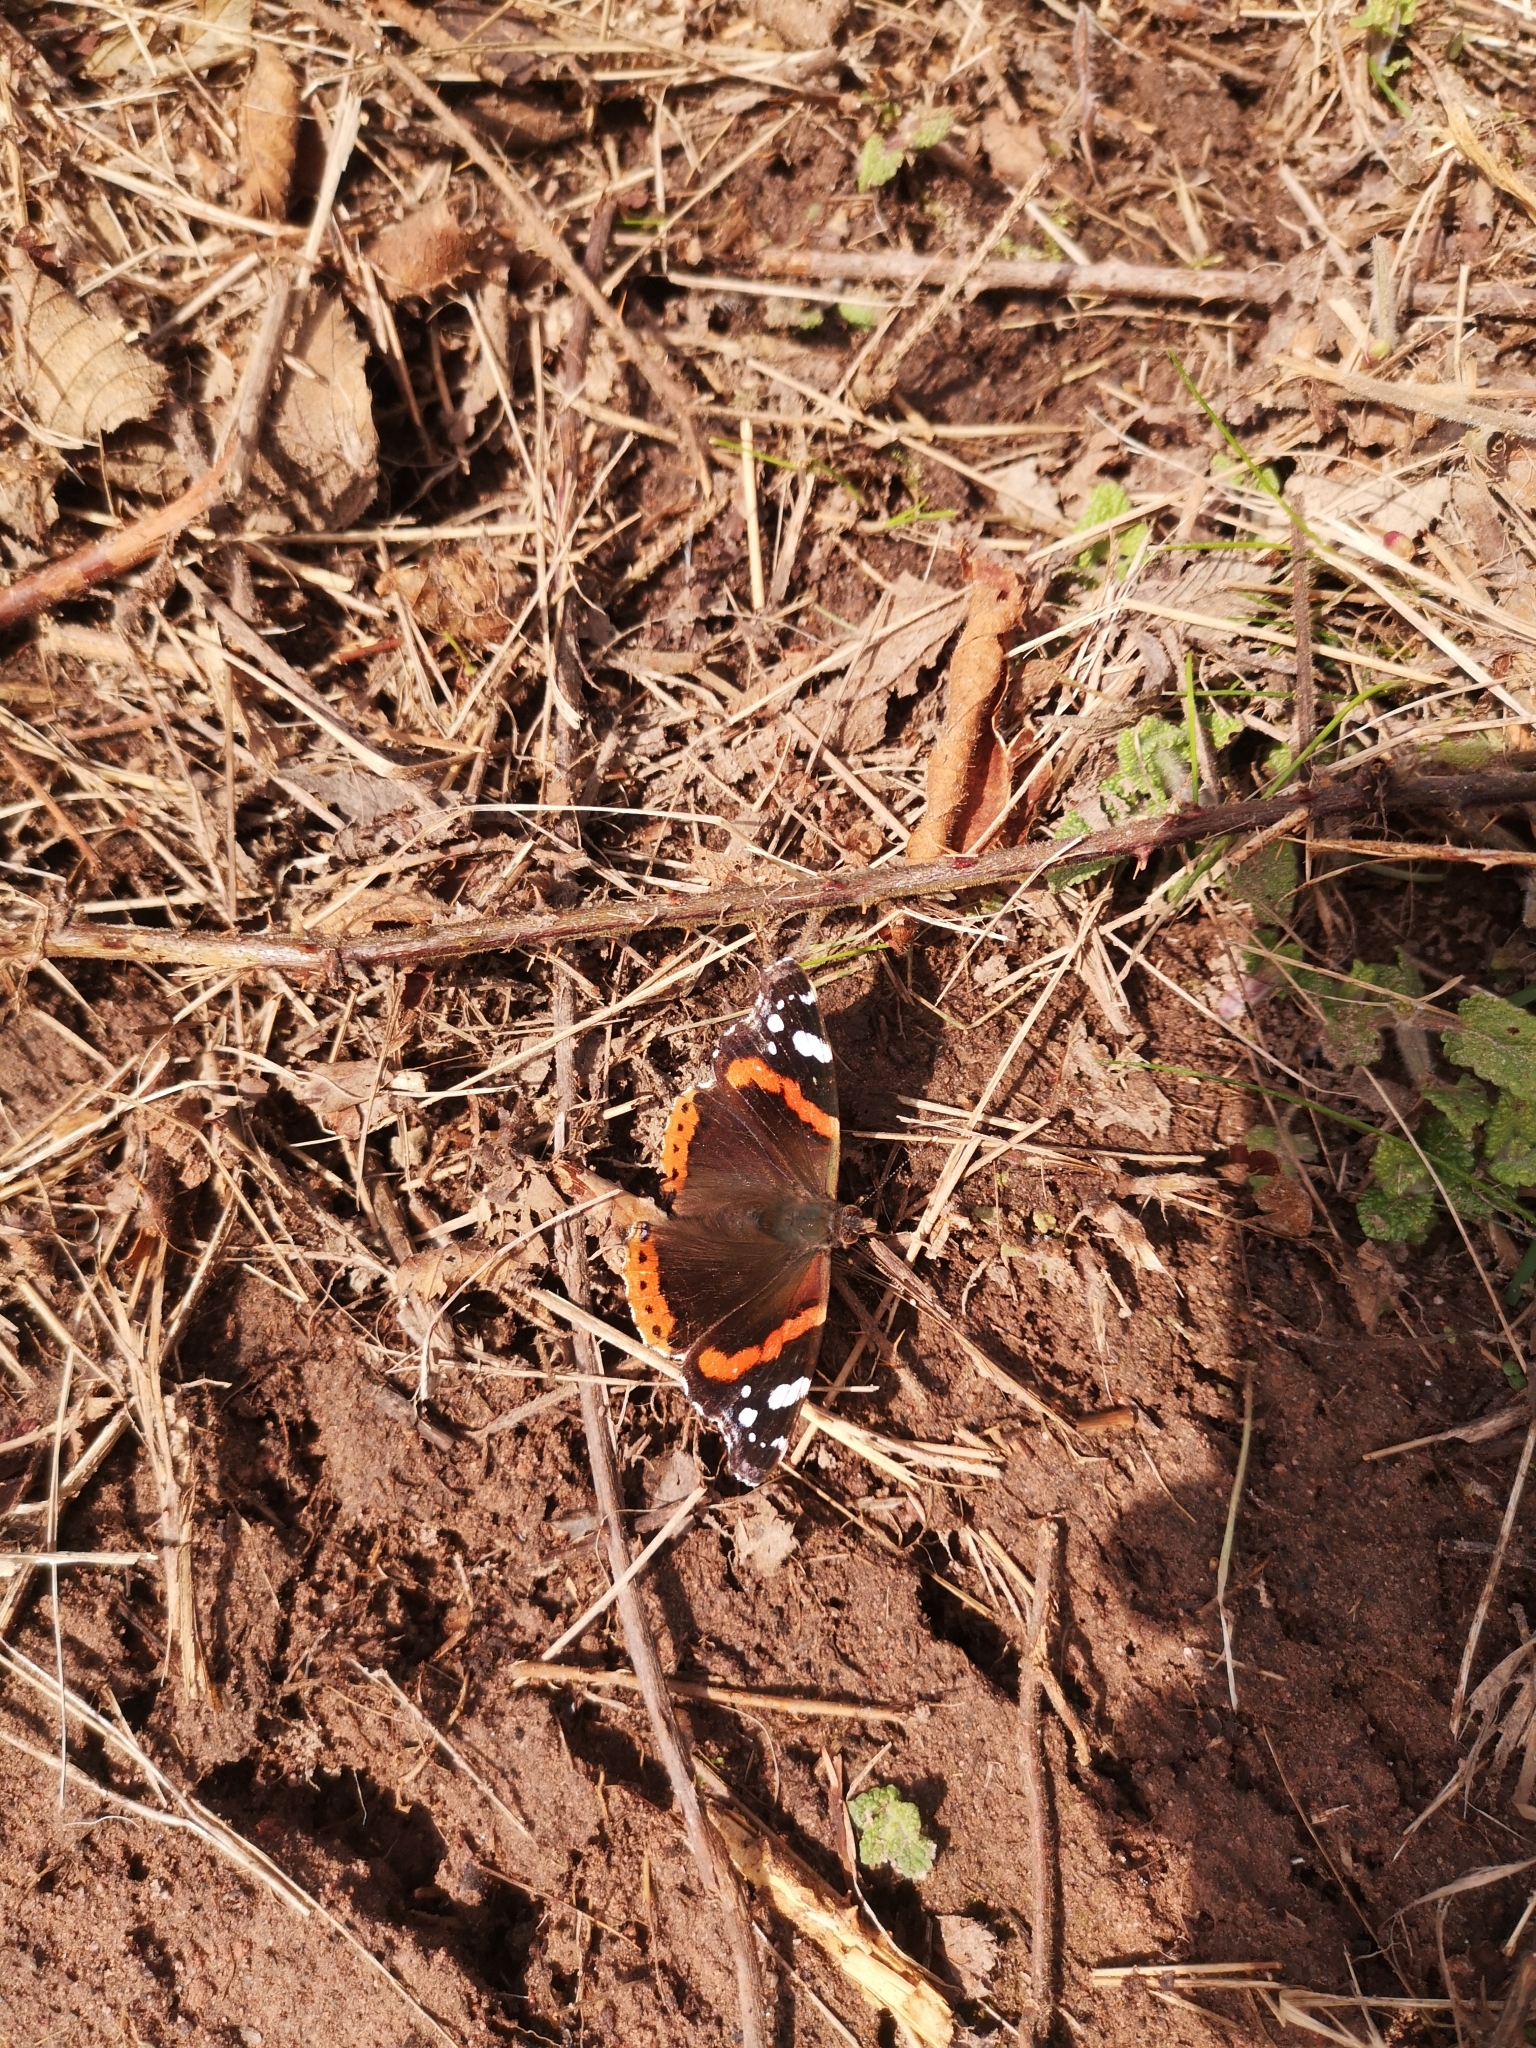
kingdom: Animalia
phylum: Arthropoda
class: Insecta
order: Lepidoptera
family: Nymphalidae
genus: Vanessa
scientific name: Vanessa atalanta
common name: Red admiral
